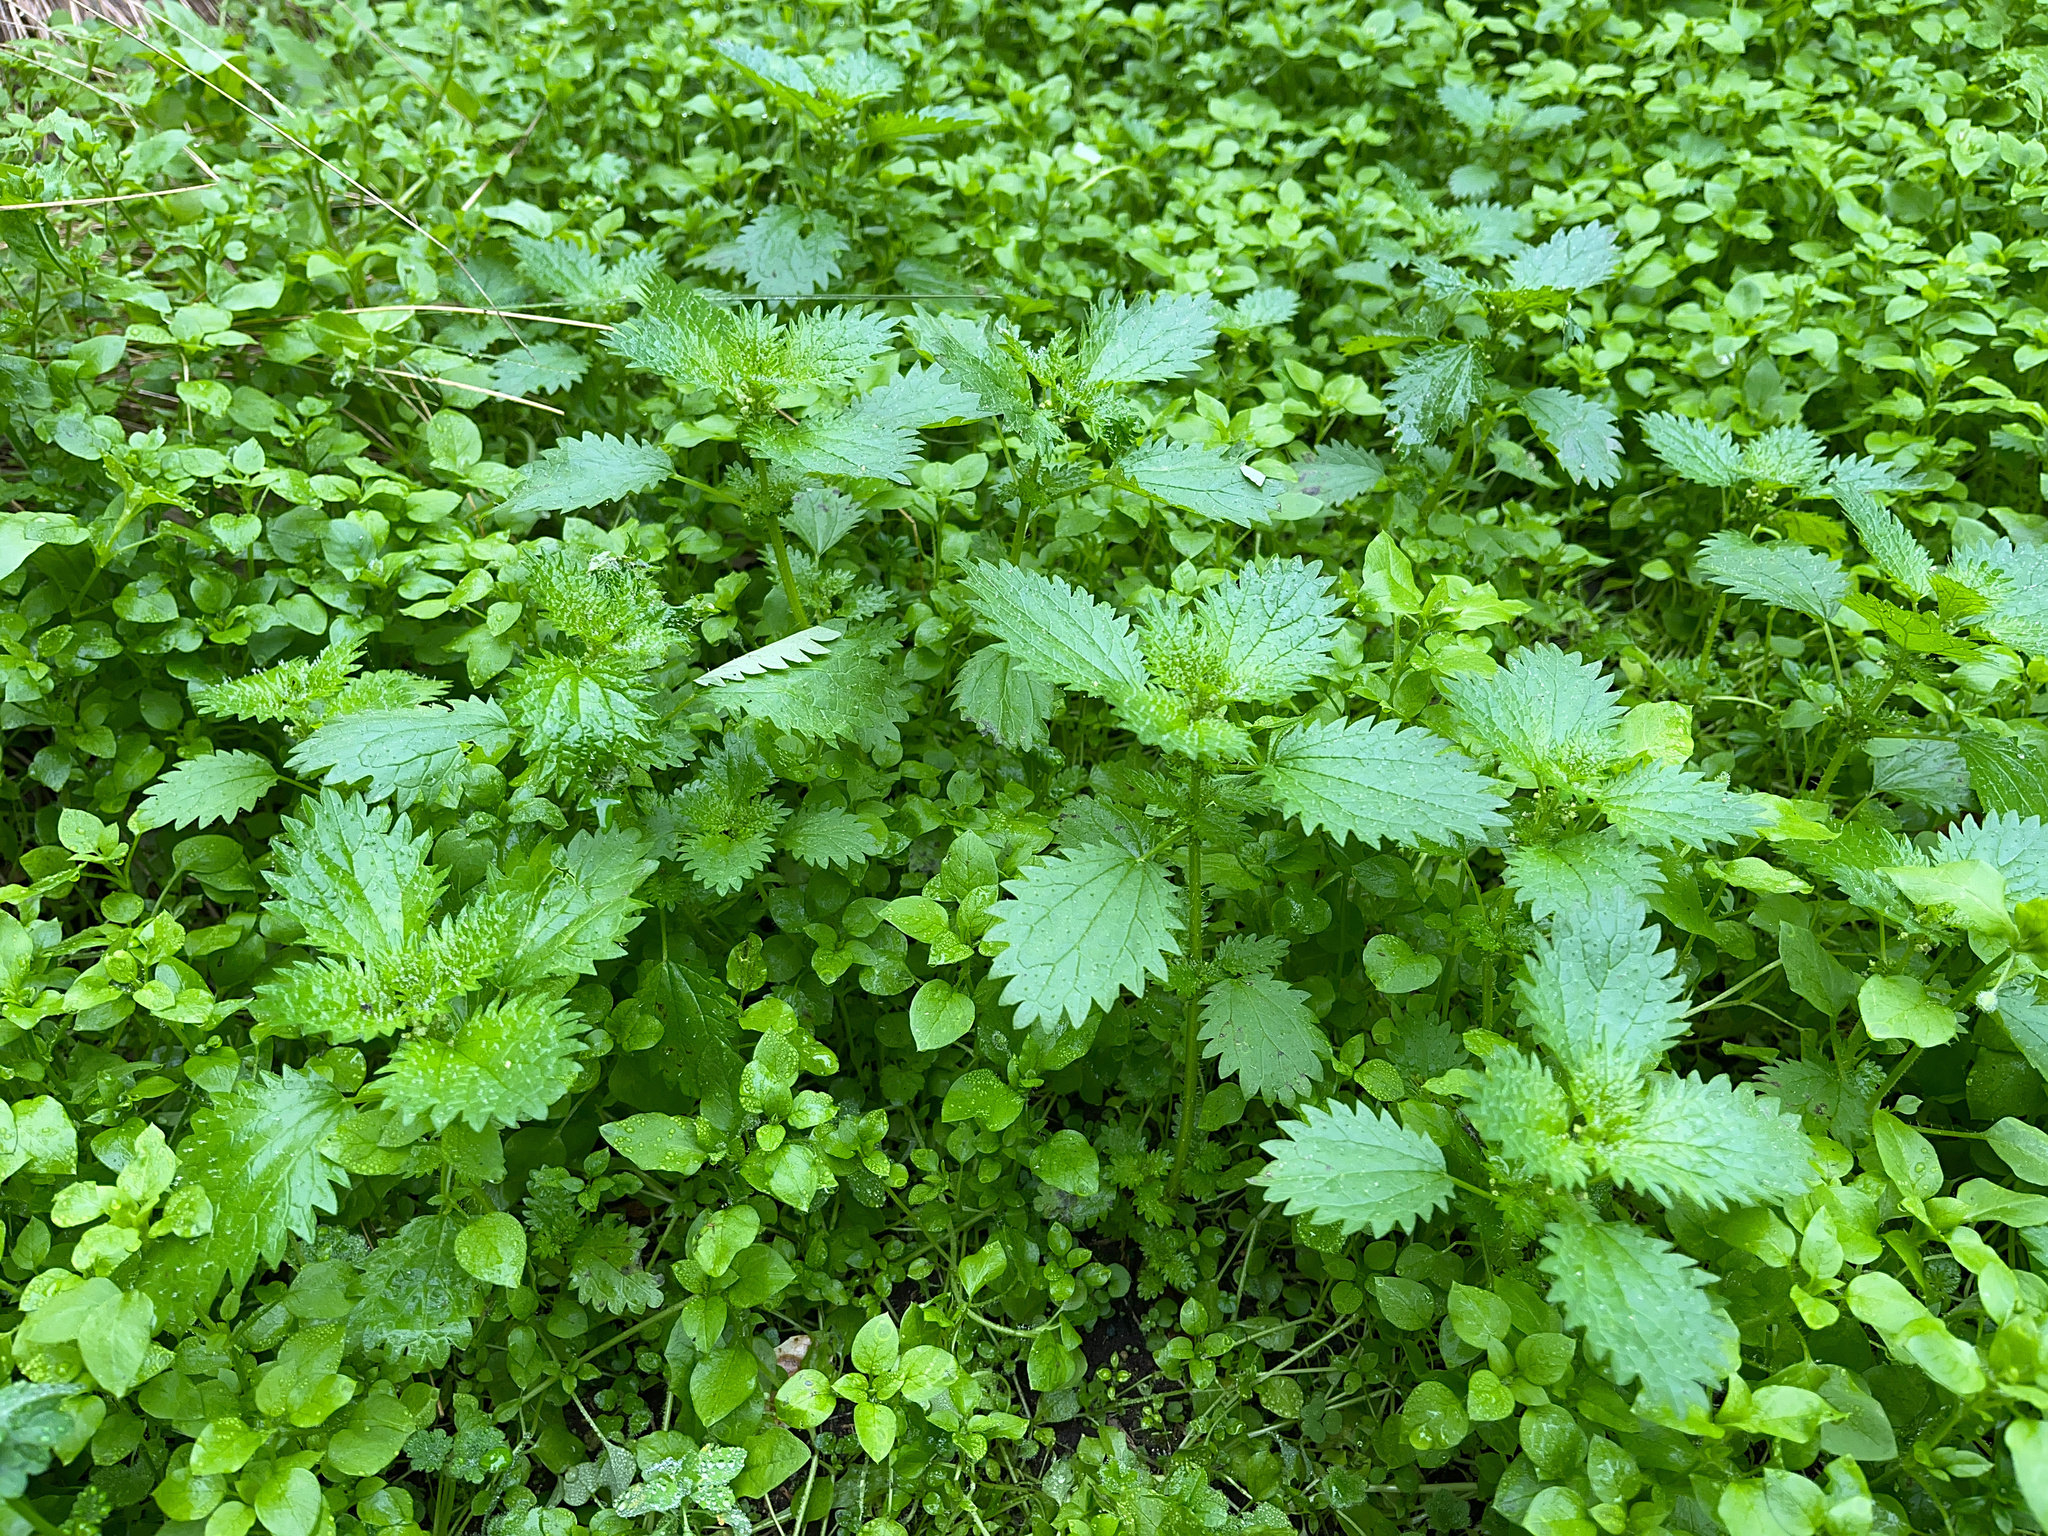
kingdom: Plantae
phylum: Tracheophyta
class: Magnoliopsida
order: Rosales
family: Urticaceae
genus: Urtica
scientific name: Urtica urens
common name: Dwarf nettle
